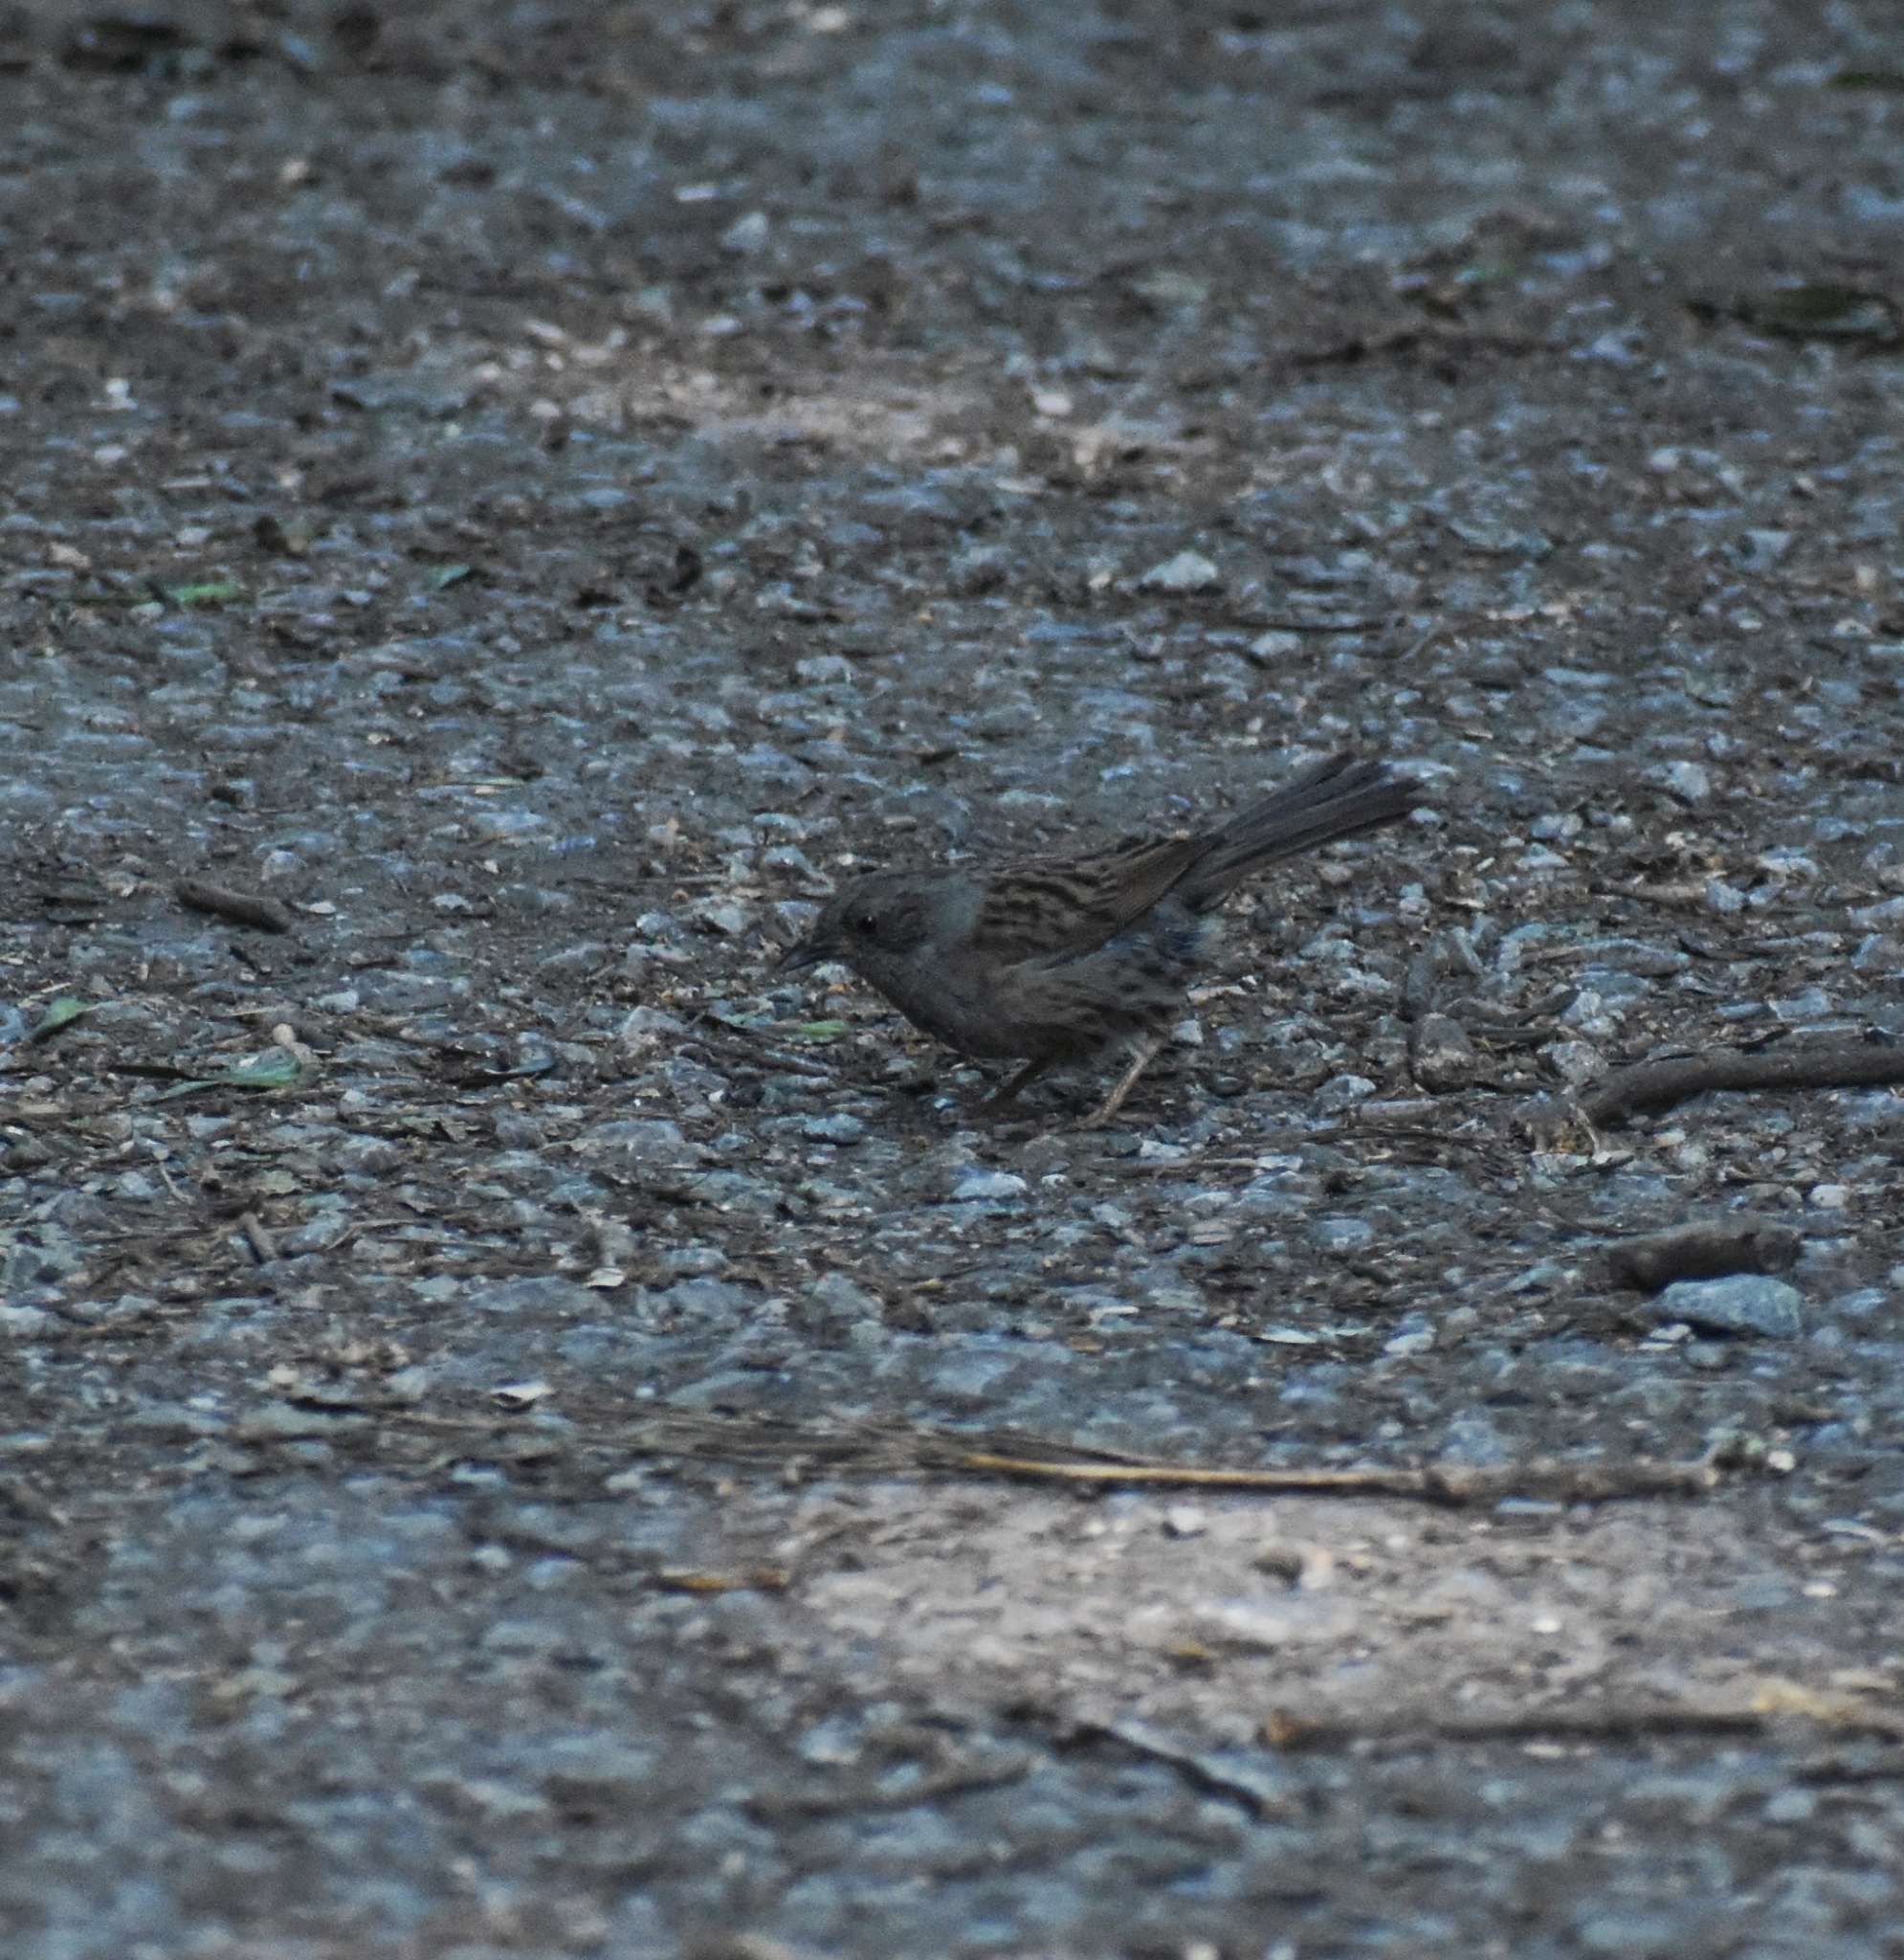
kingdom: Animalia
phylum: Chordata
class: Aves
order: Passeriformes
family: Prunellidae
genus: Prunella
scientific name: Prunella modularis
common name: Dunnock
